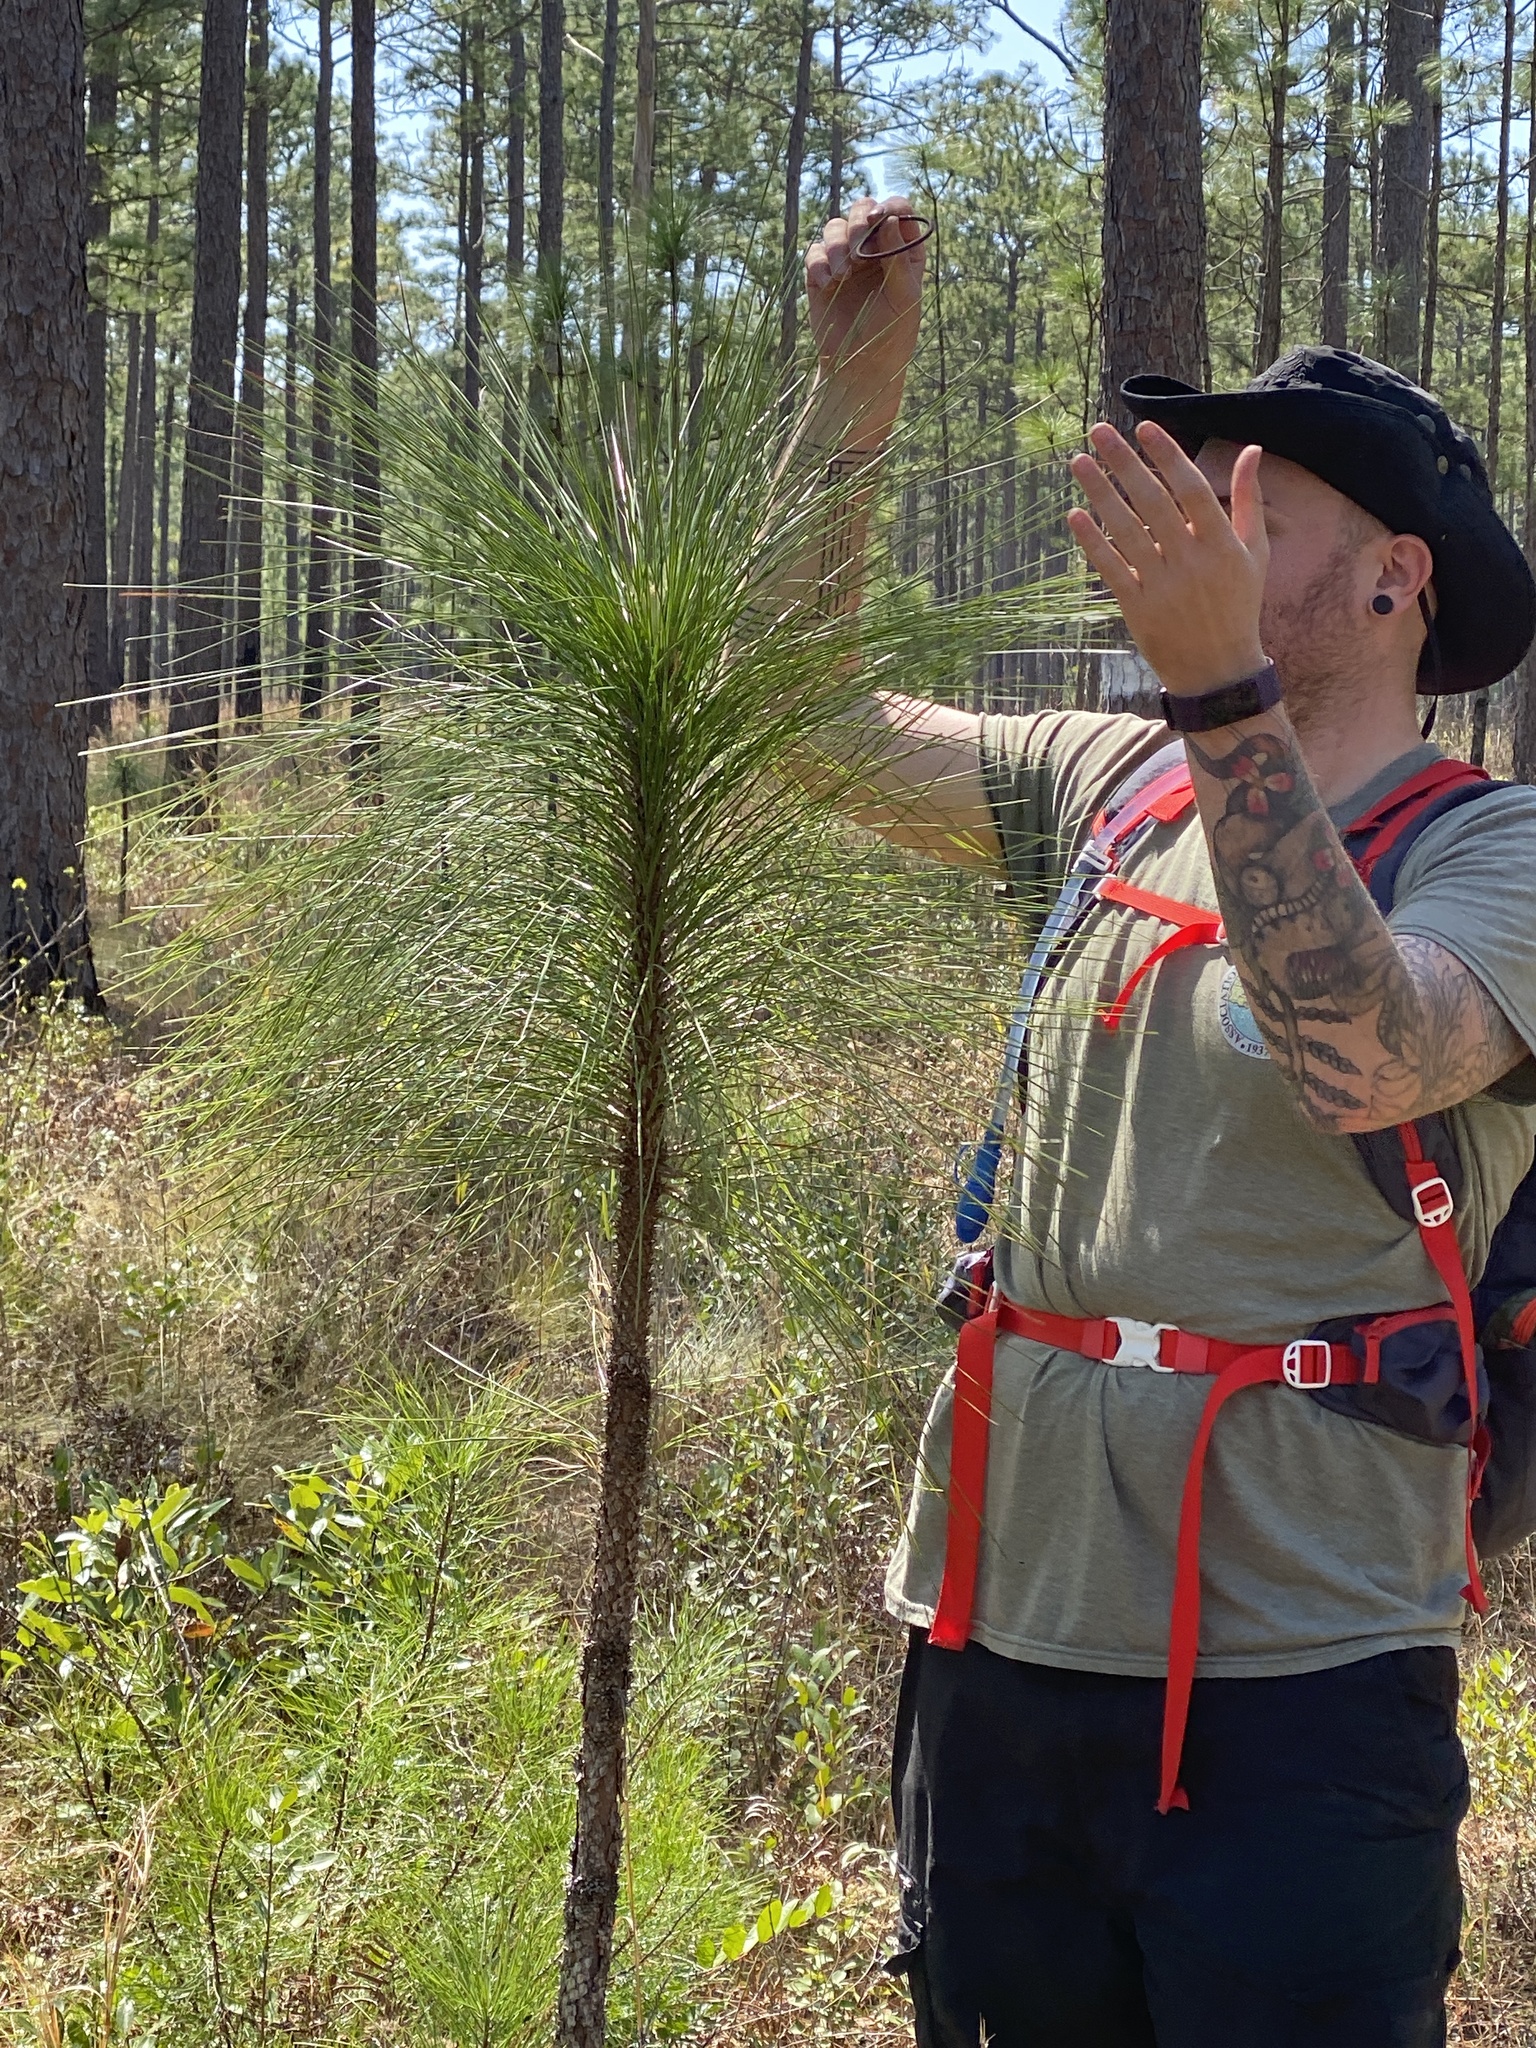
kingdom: Plantae
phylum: Tracheophyta
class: Pinopsida
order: Pinales
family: Pinaceae
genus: Pinus
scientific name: Pinus palustris
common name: Longleaf pine
